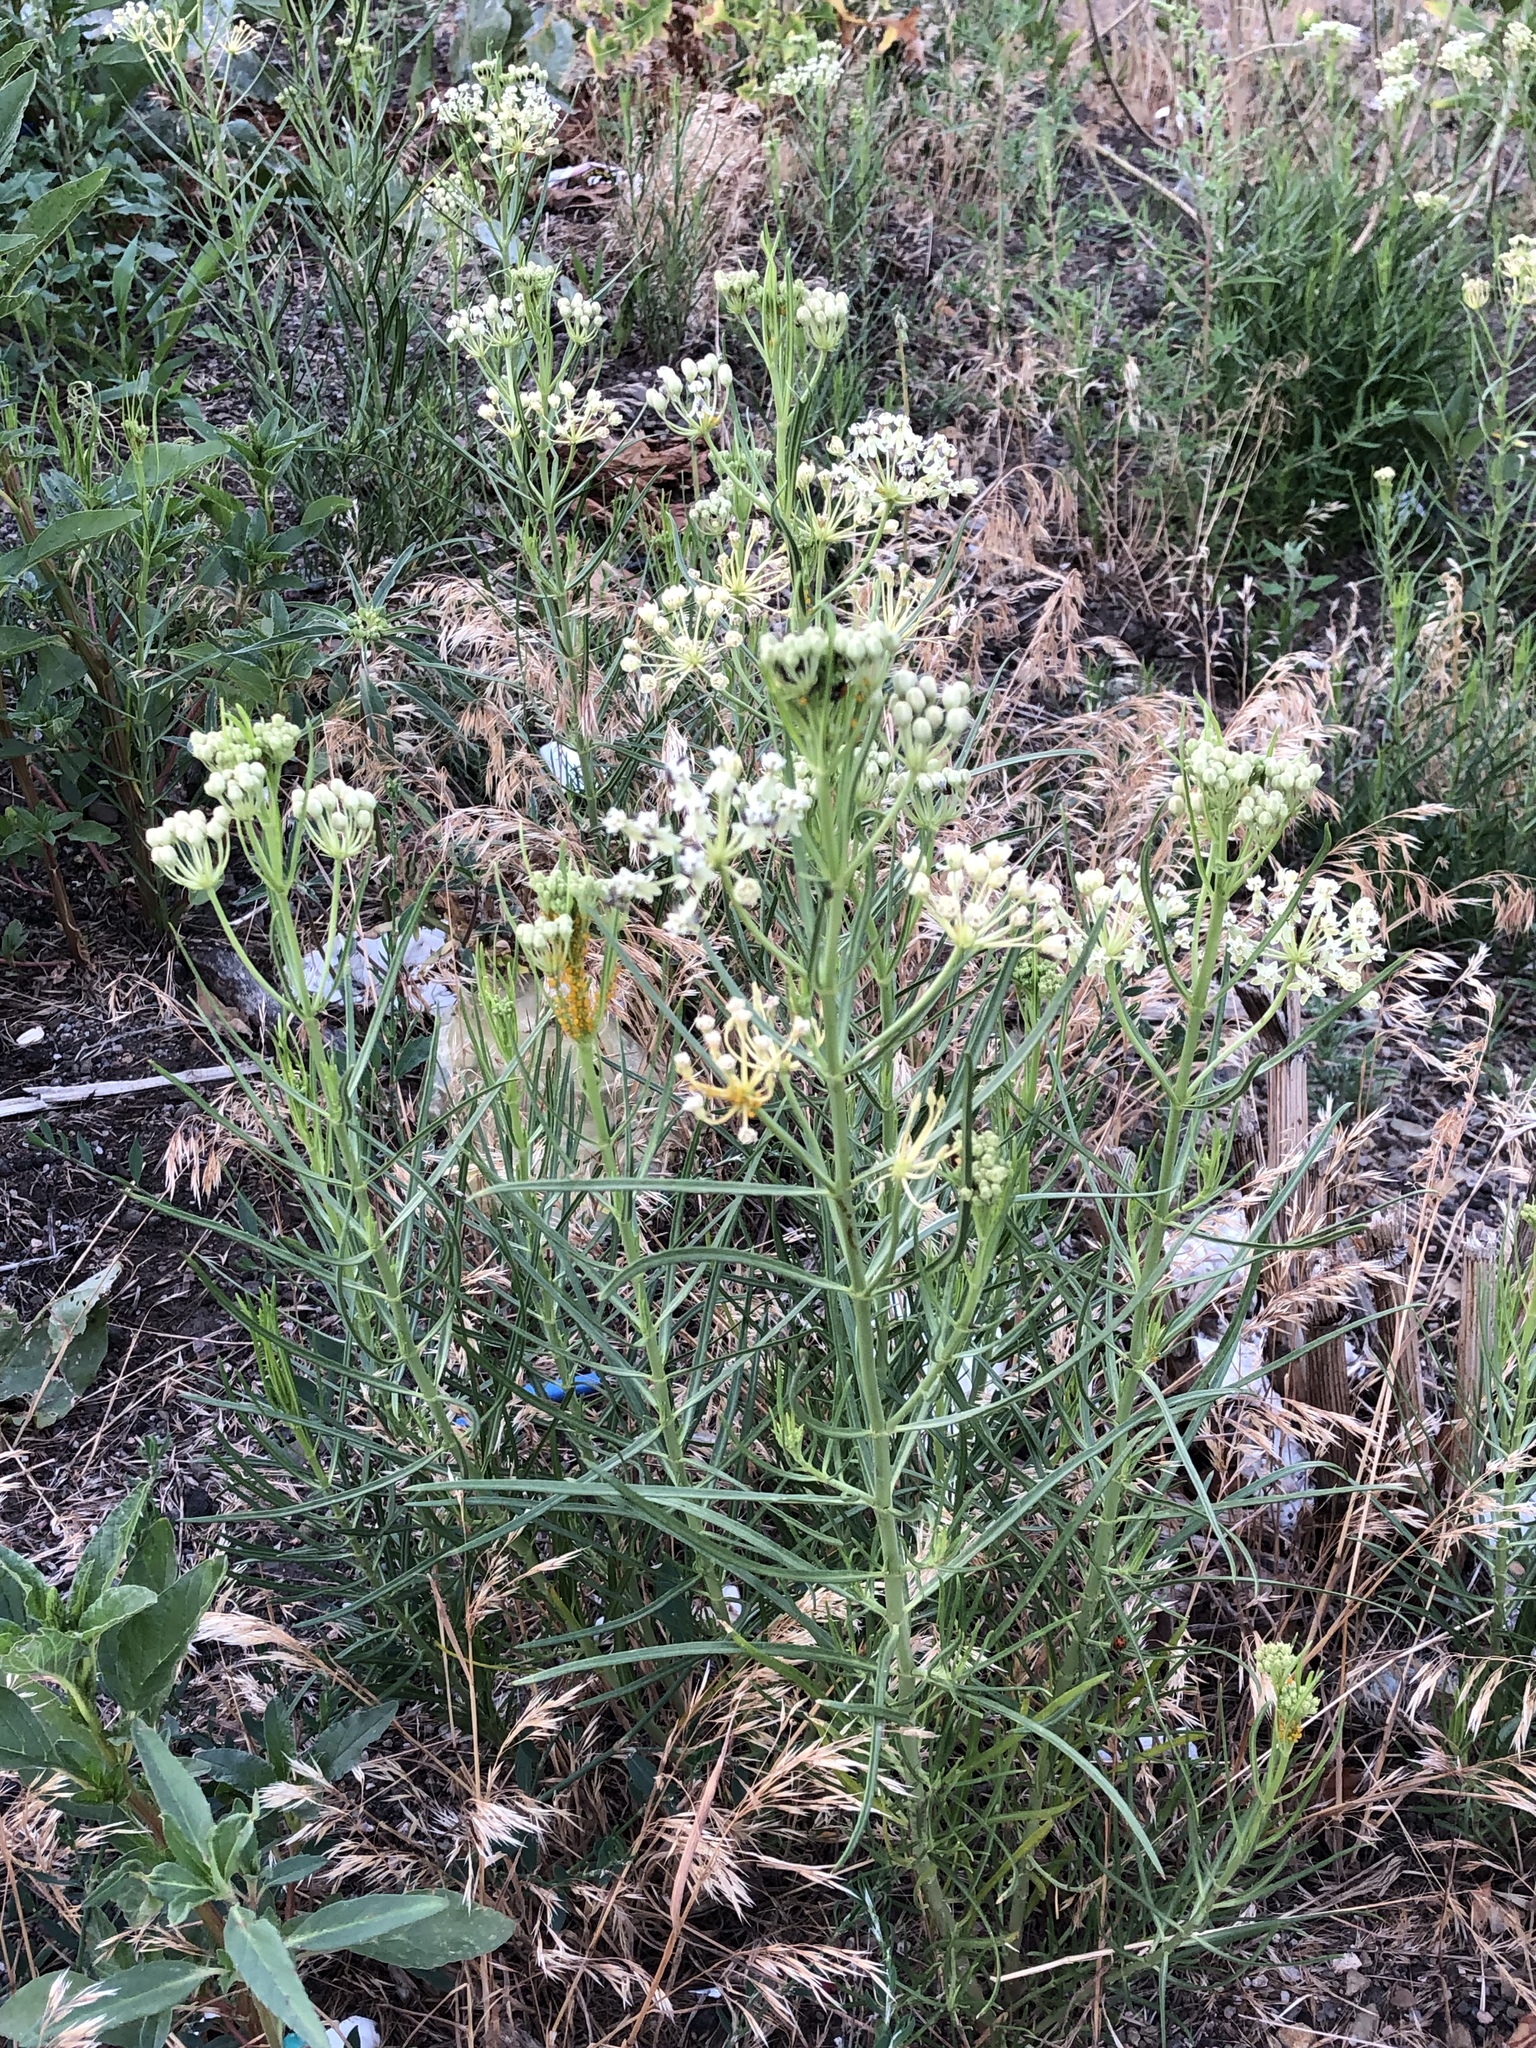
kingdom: Plantae
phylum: Tracheophyta
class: Magnoliopsida
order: Gentianales
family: Apocynaceae
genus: Asclepias
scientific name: Asclepias subverticillata
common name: Horsetail milkweed
